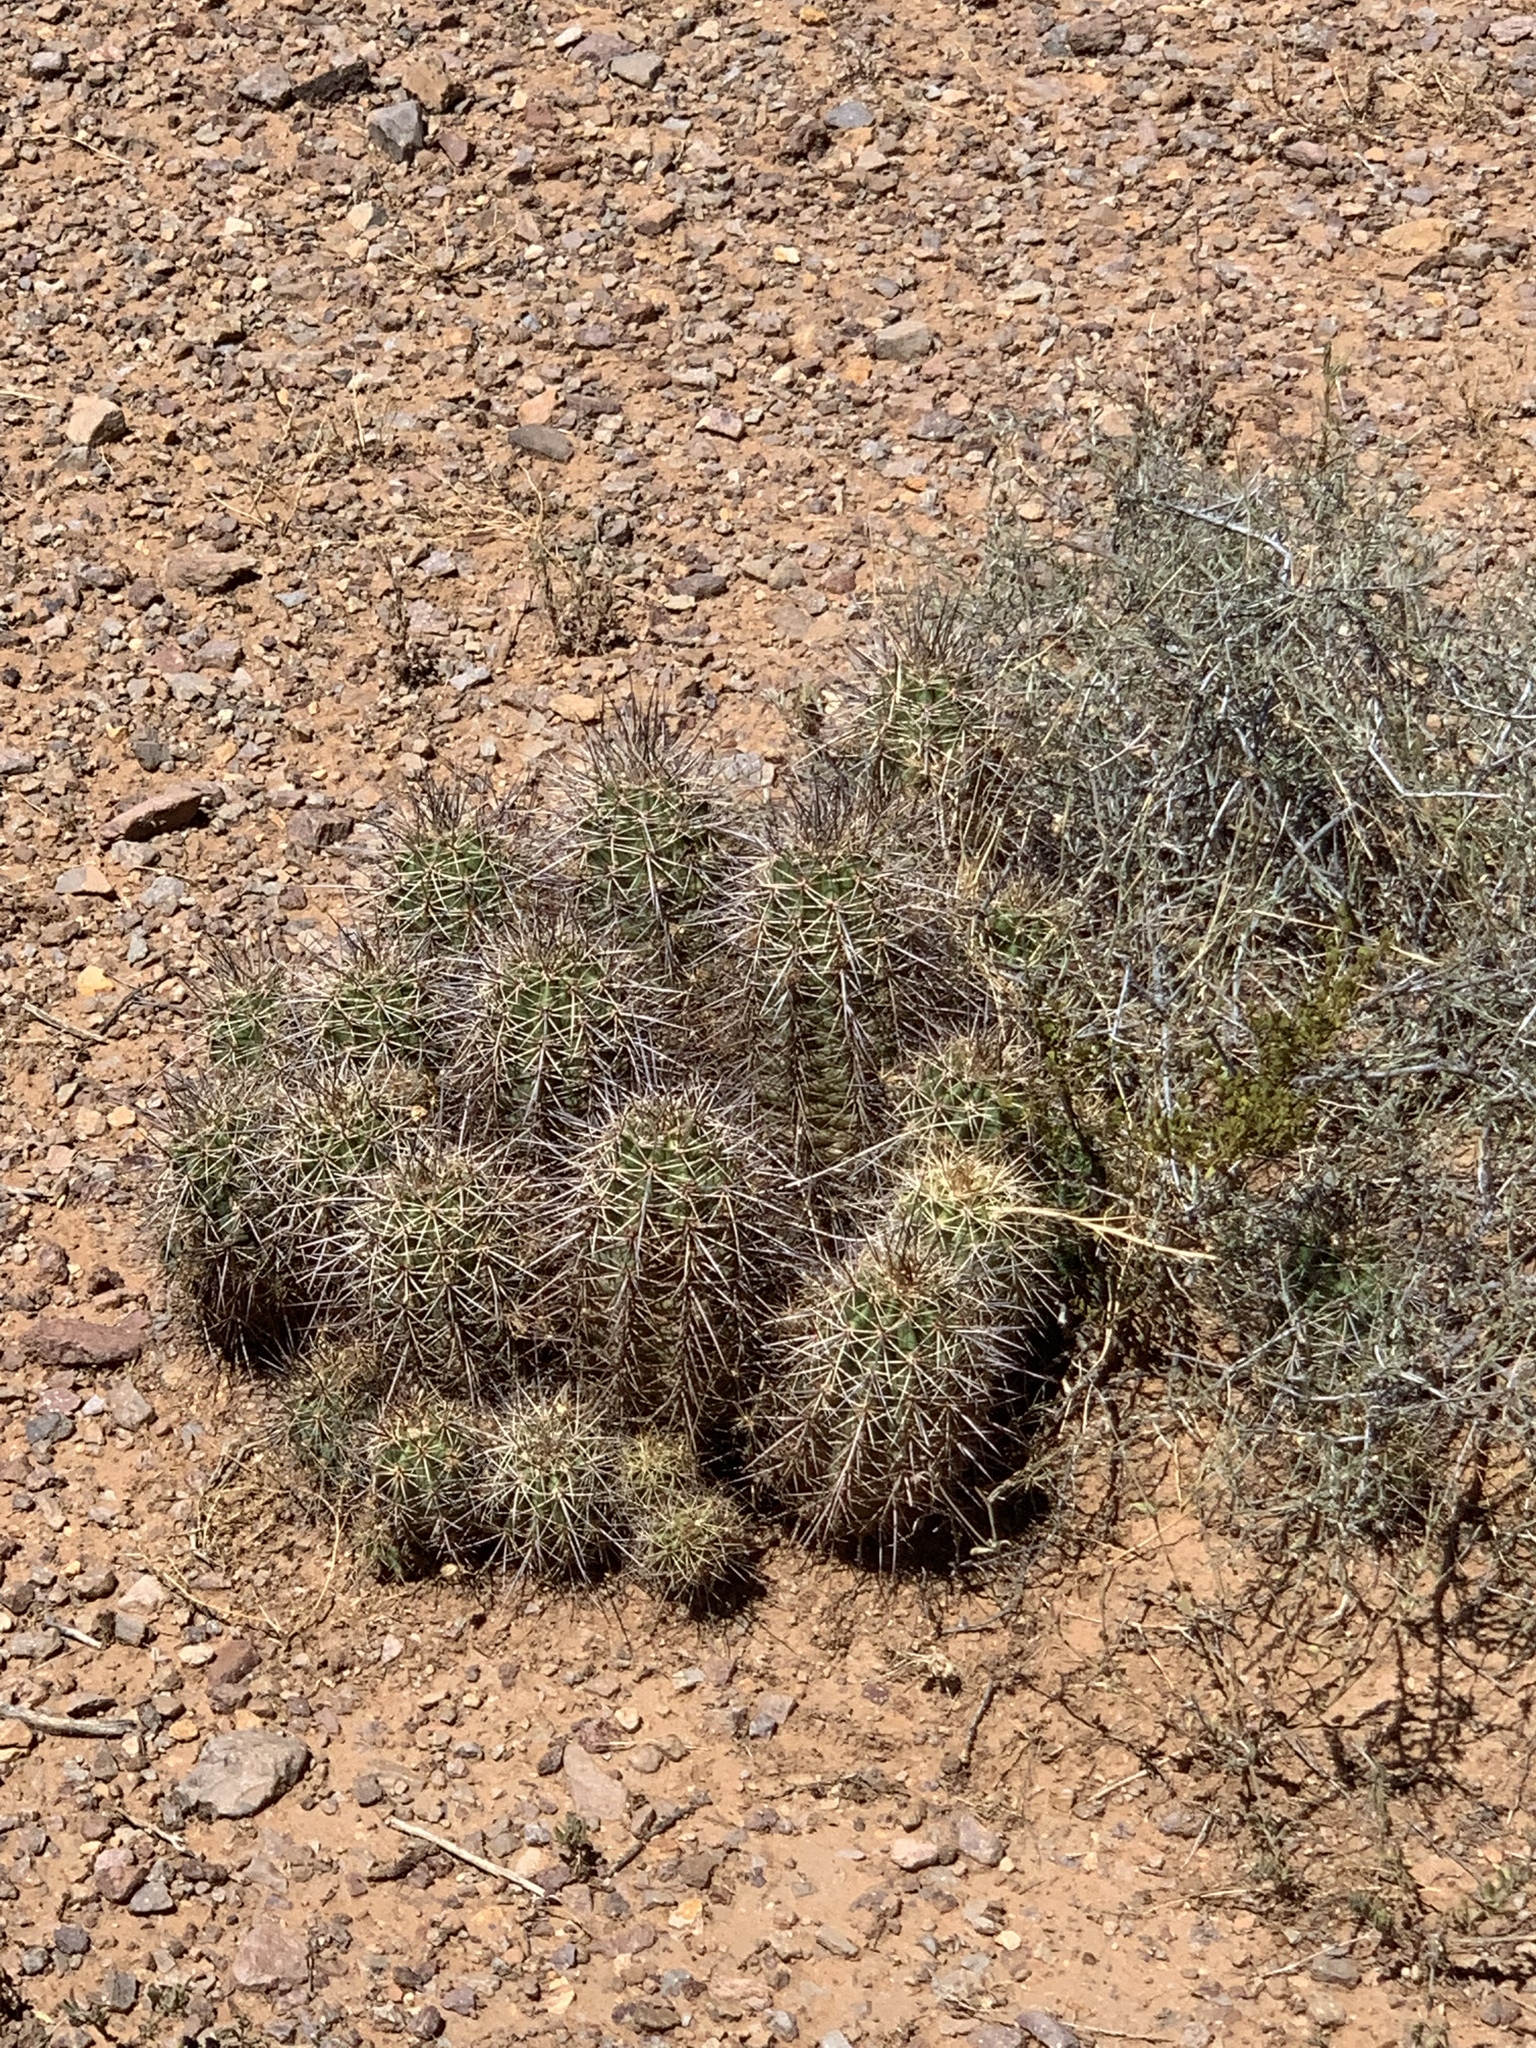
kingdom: Plantae
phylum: Tracheophyta
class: Magnoliopsida
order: Caryophyllales
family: Cactaceae
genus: Echinocereus
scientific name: Echinocereus coccineus
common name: Scarlet hedgehog cactus
